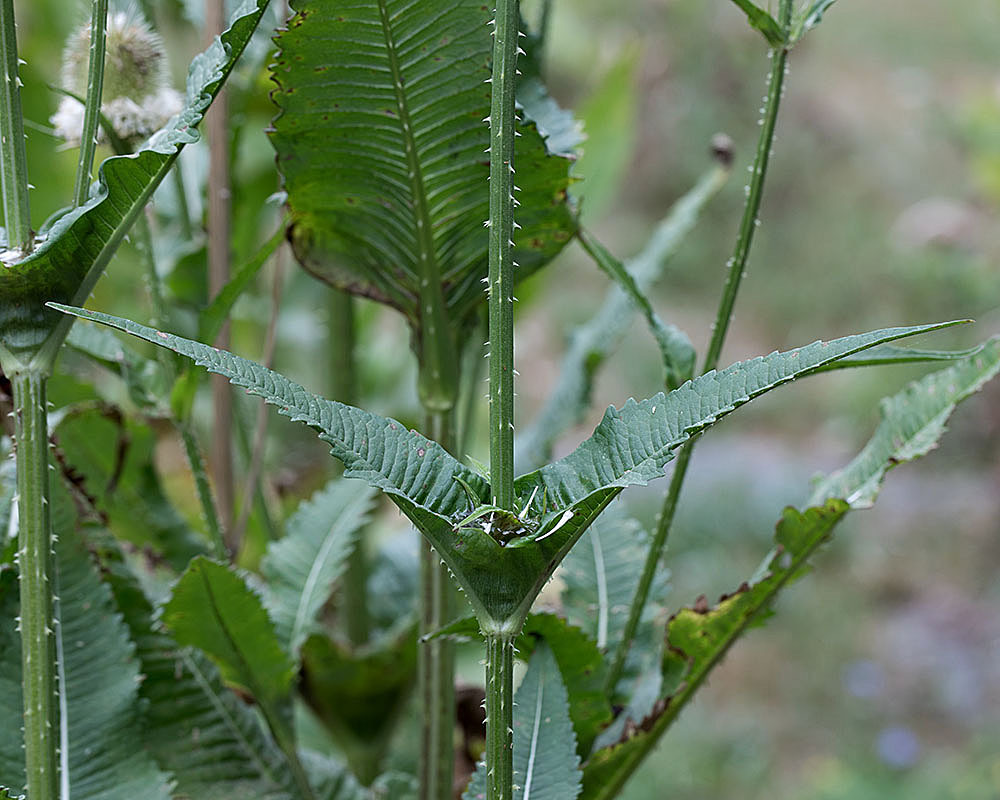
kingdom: Plantae
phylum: Tracheophyta
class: Magnoliopsida
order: Dipsacales
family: Caprifoliaceae
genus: Dipsacus
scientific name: Dipsacus laciniatus
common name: Cut-leaved teasel
